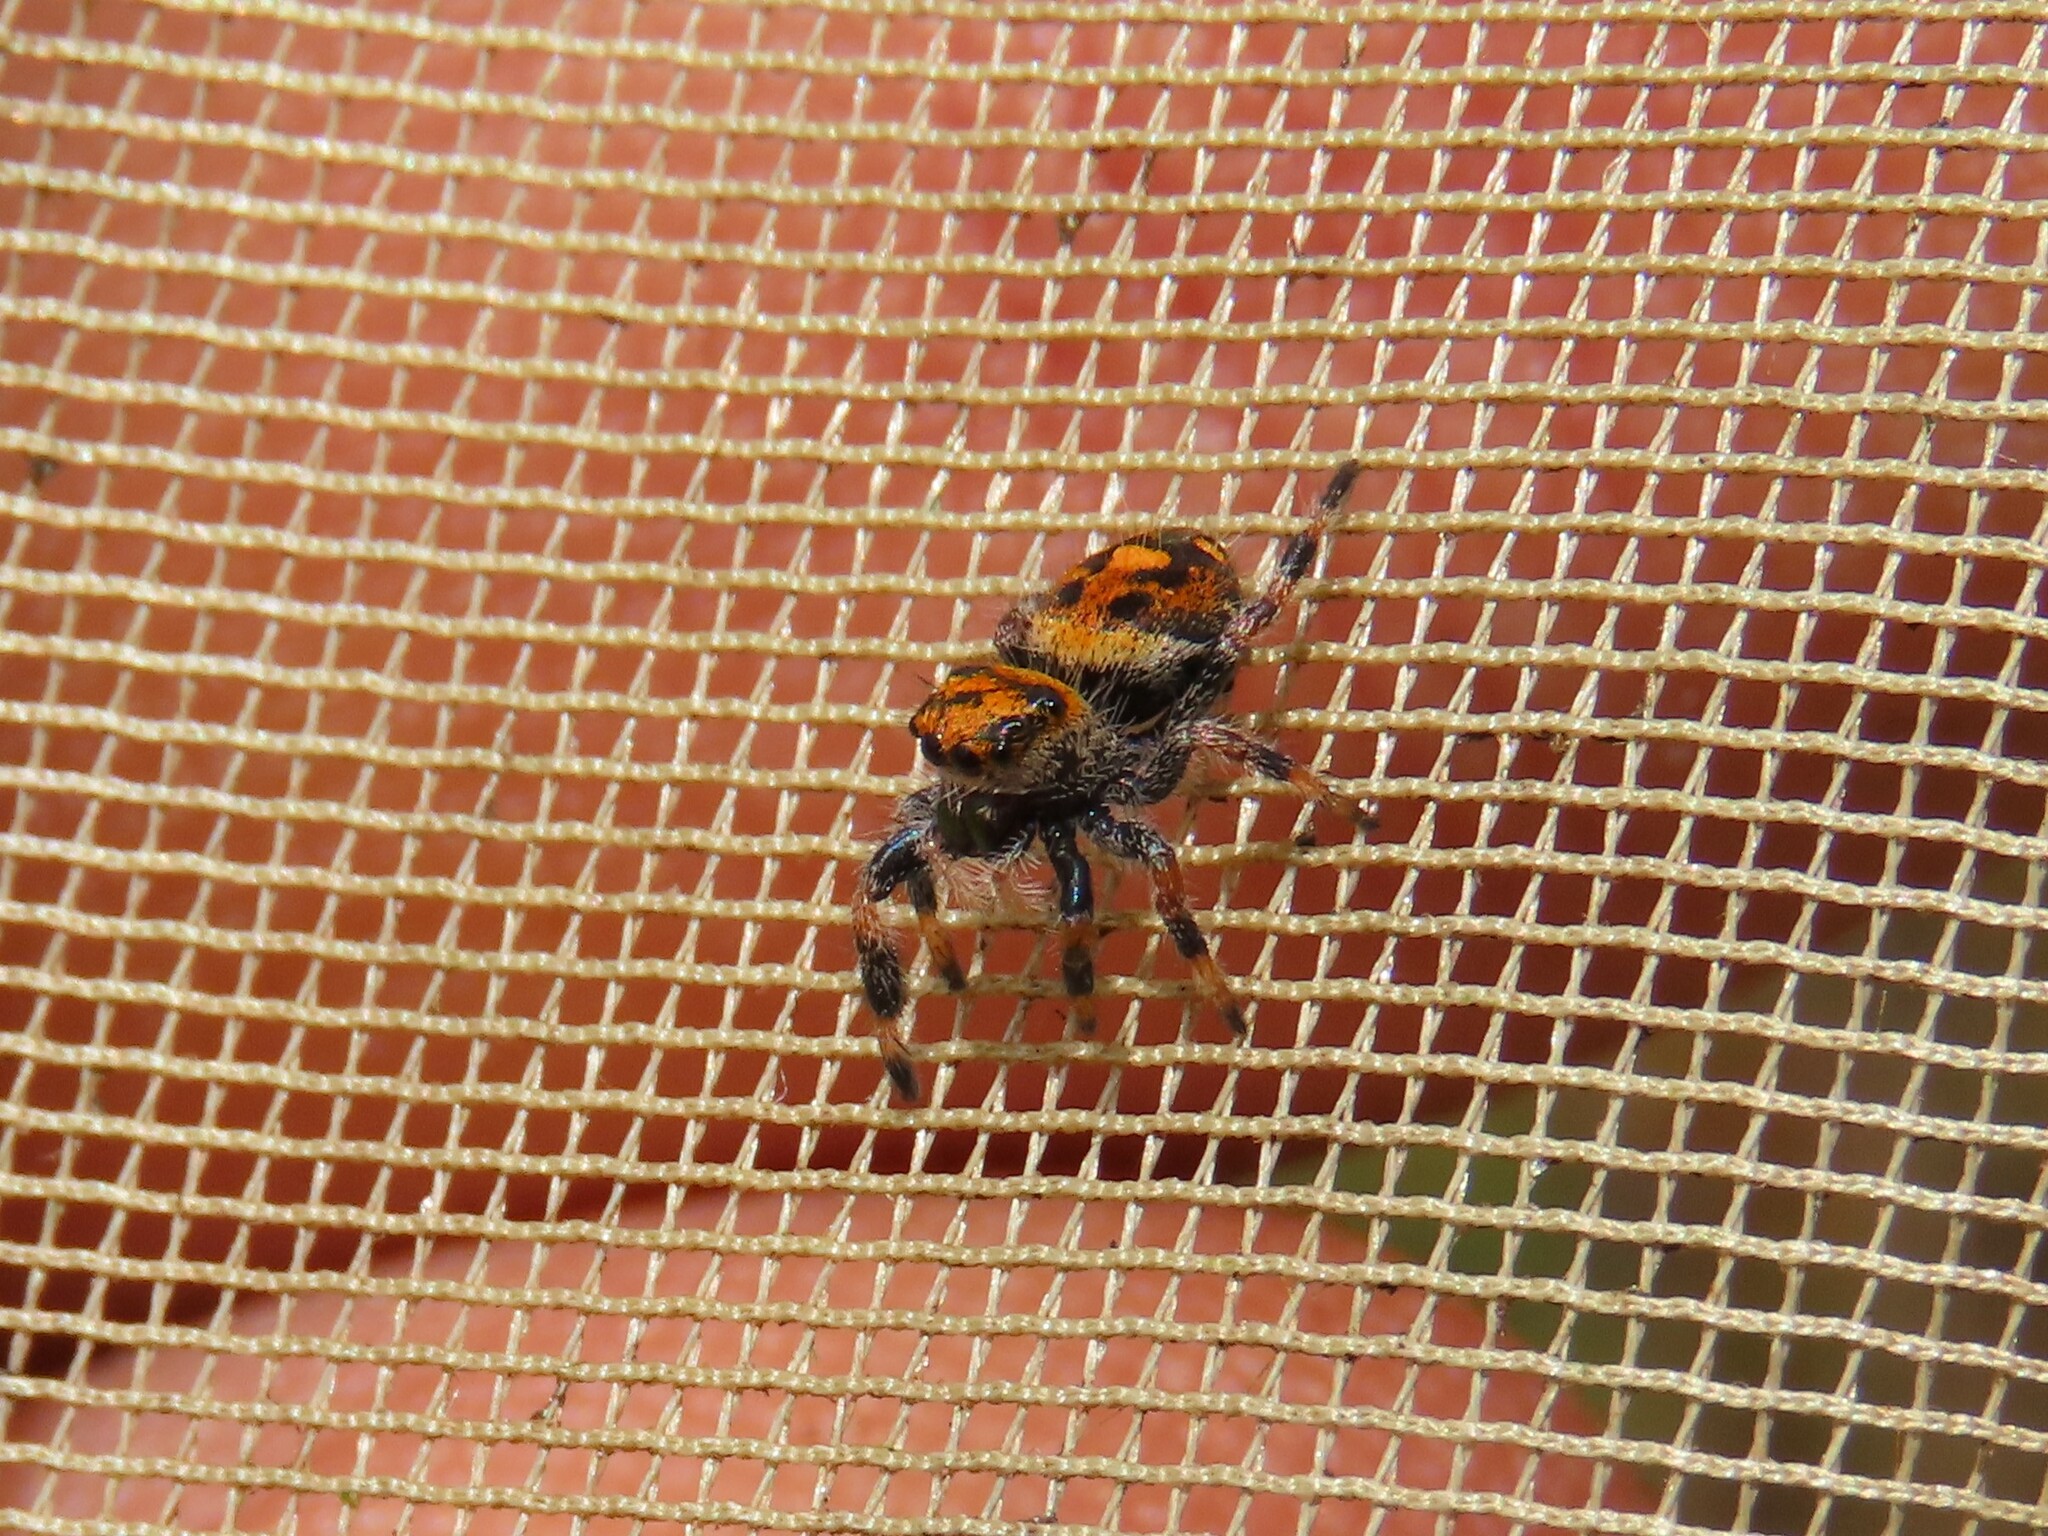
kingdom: Animalia
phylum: Arthropoda
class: Arachnida
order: Araneae
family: Salticidae
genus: Phidippus
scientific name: Phidippus regius
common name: Regal jumper
